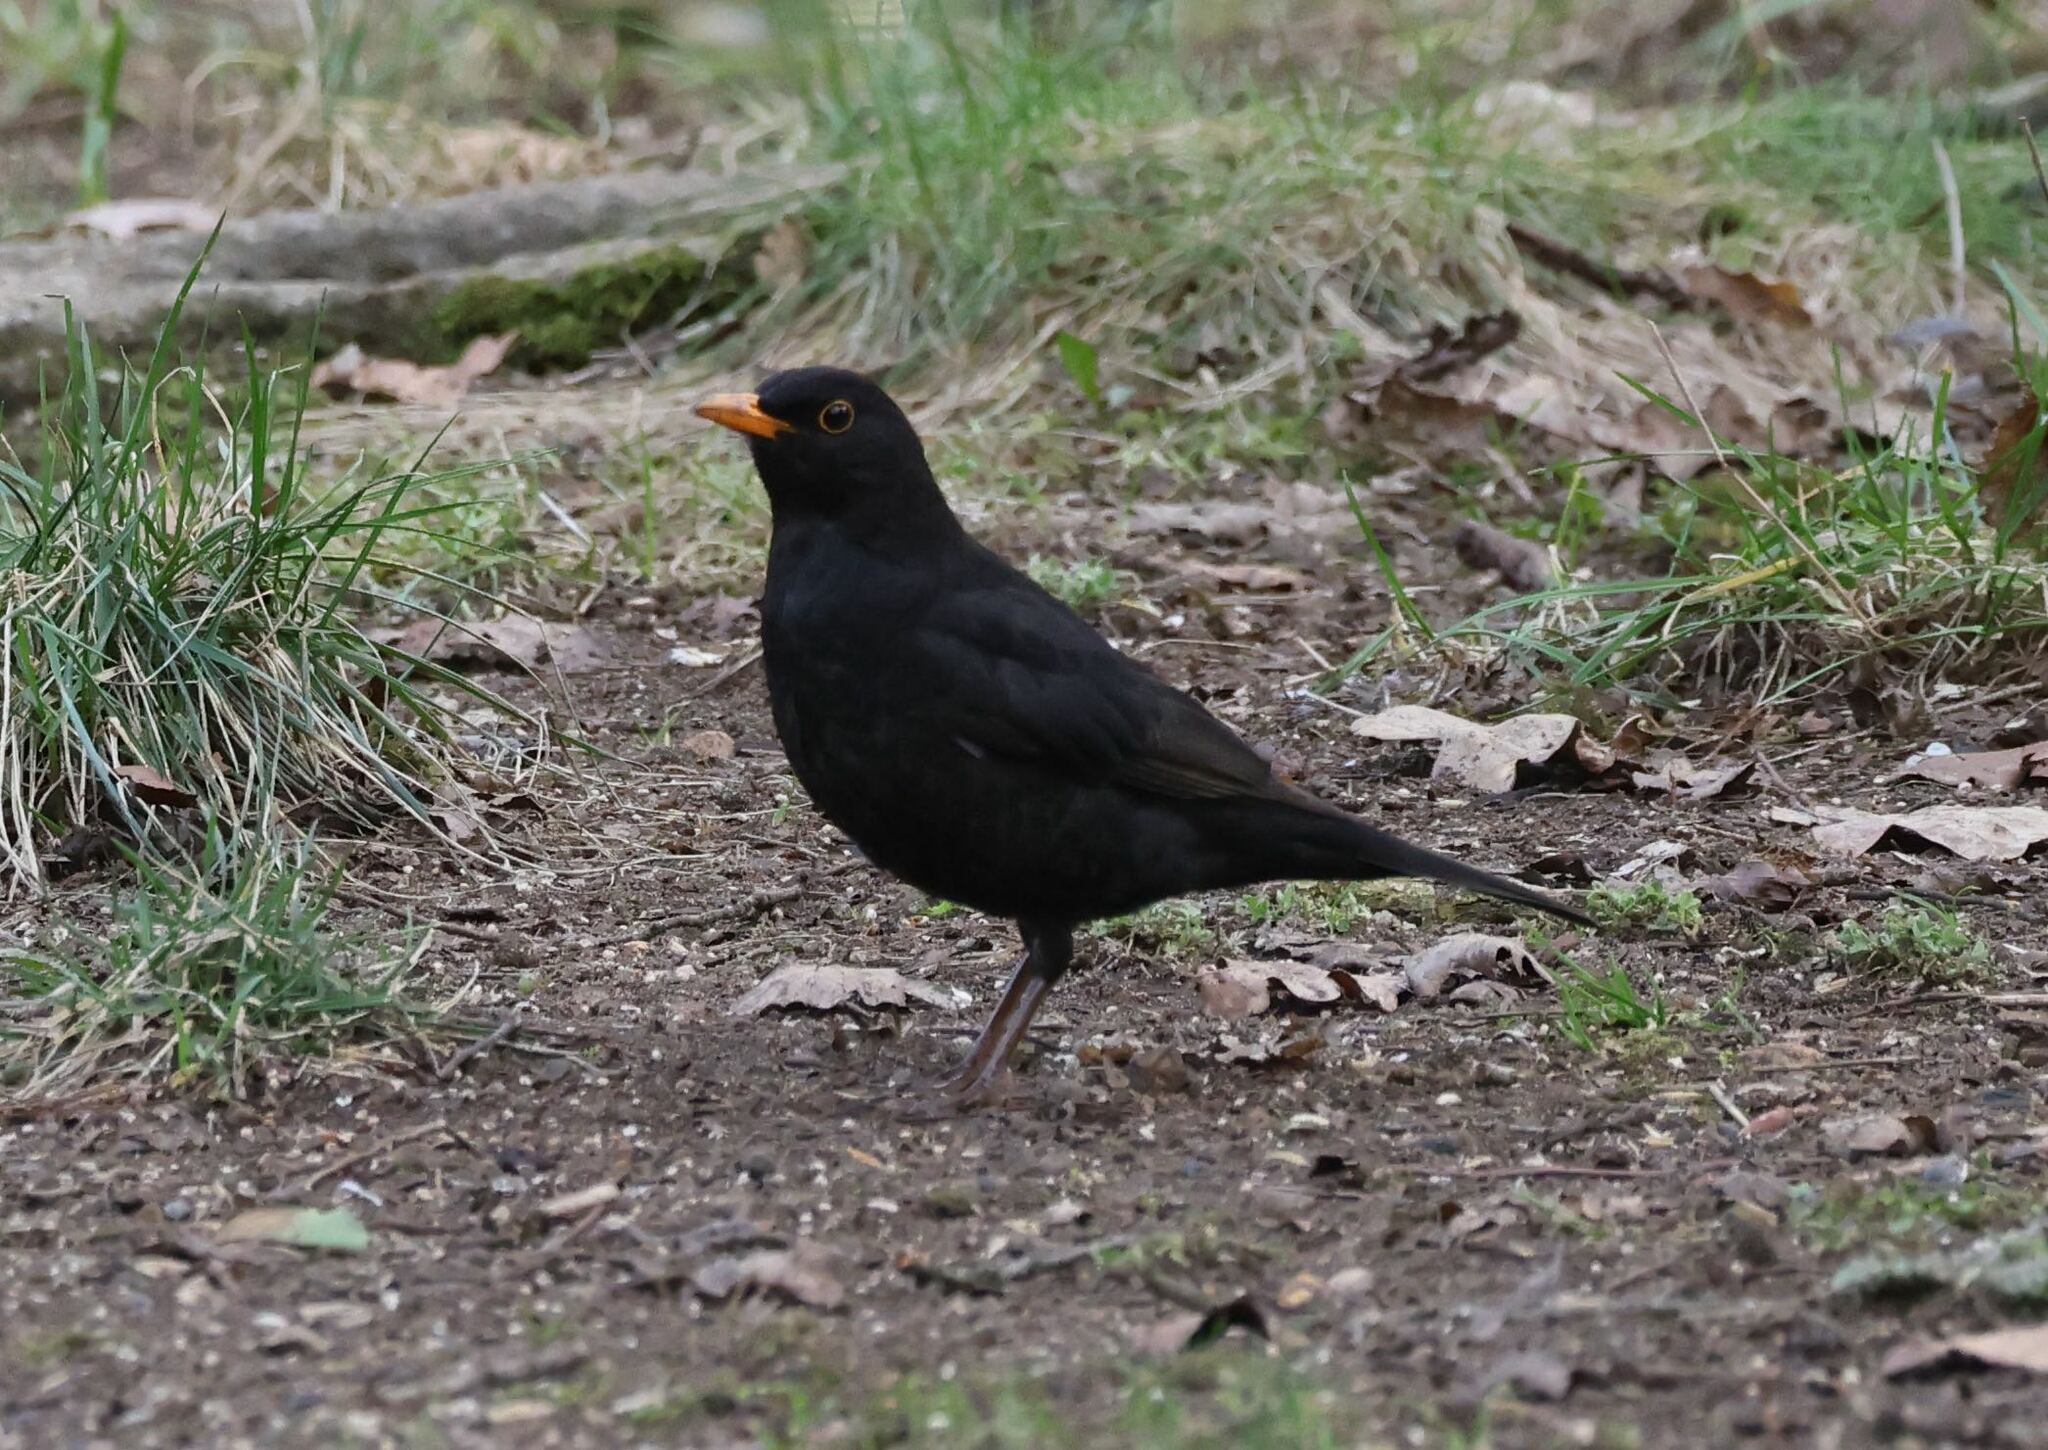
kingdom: Animalia
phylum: Chordata
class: Aves
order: Passeriformes
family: Turdidae
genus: Turdus
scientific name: Turdus merula
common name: Common blackbird
